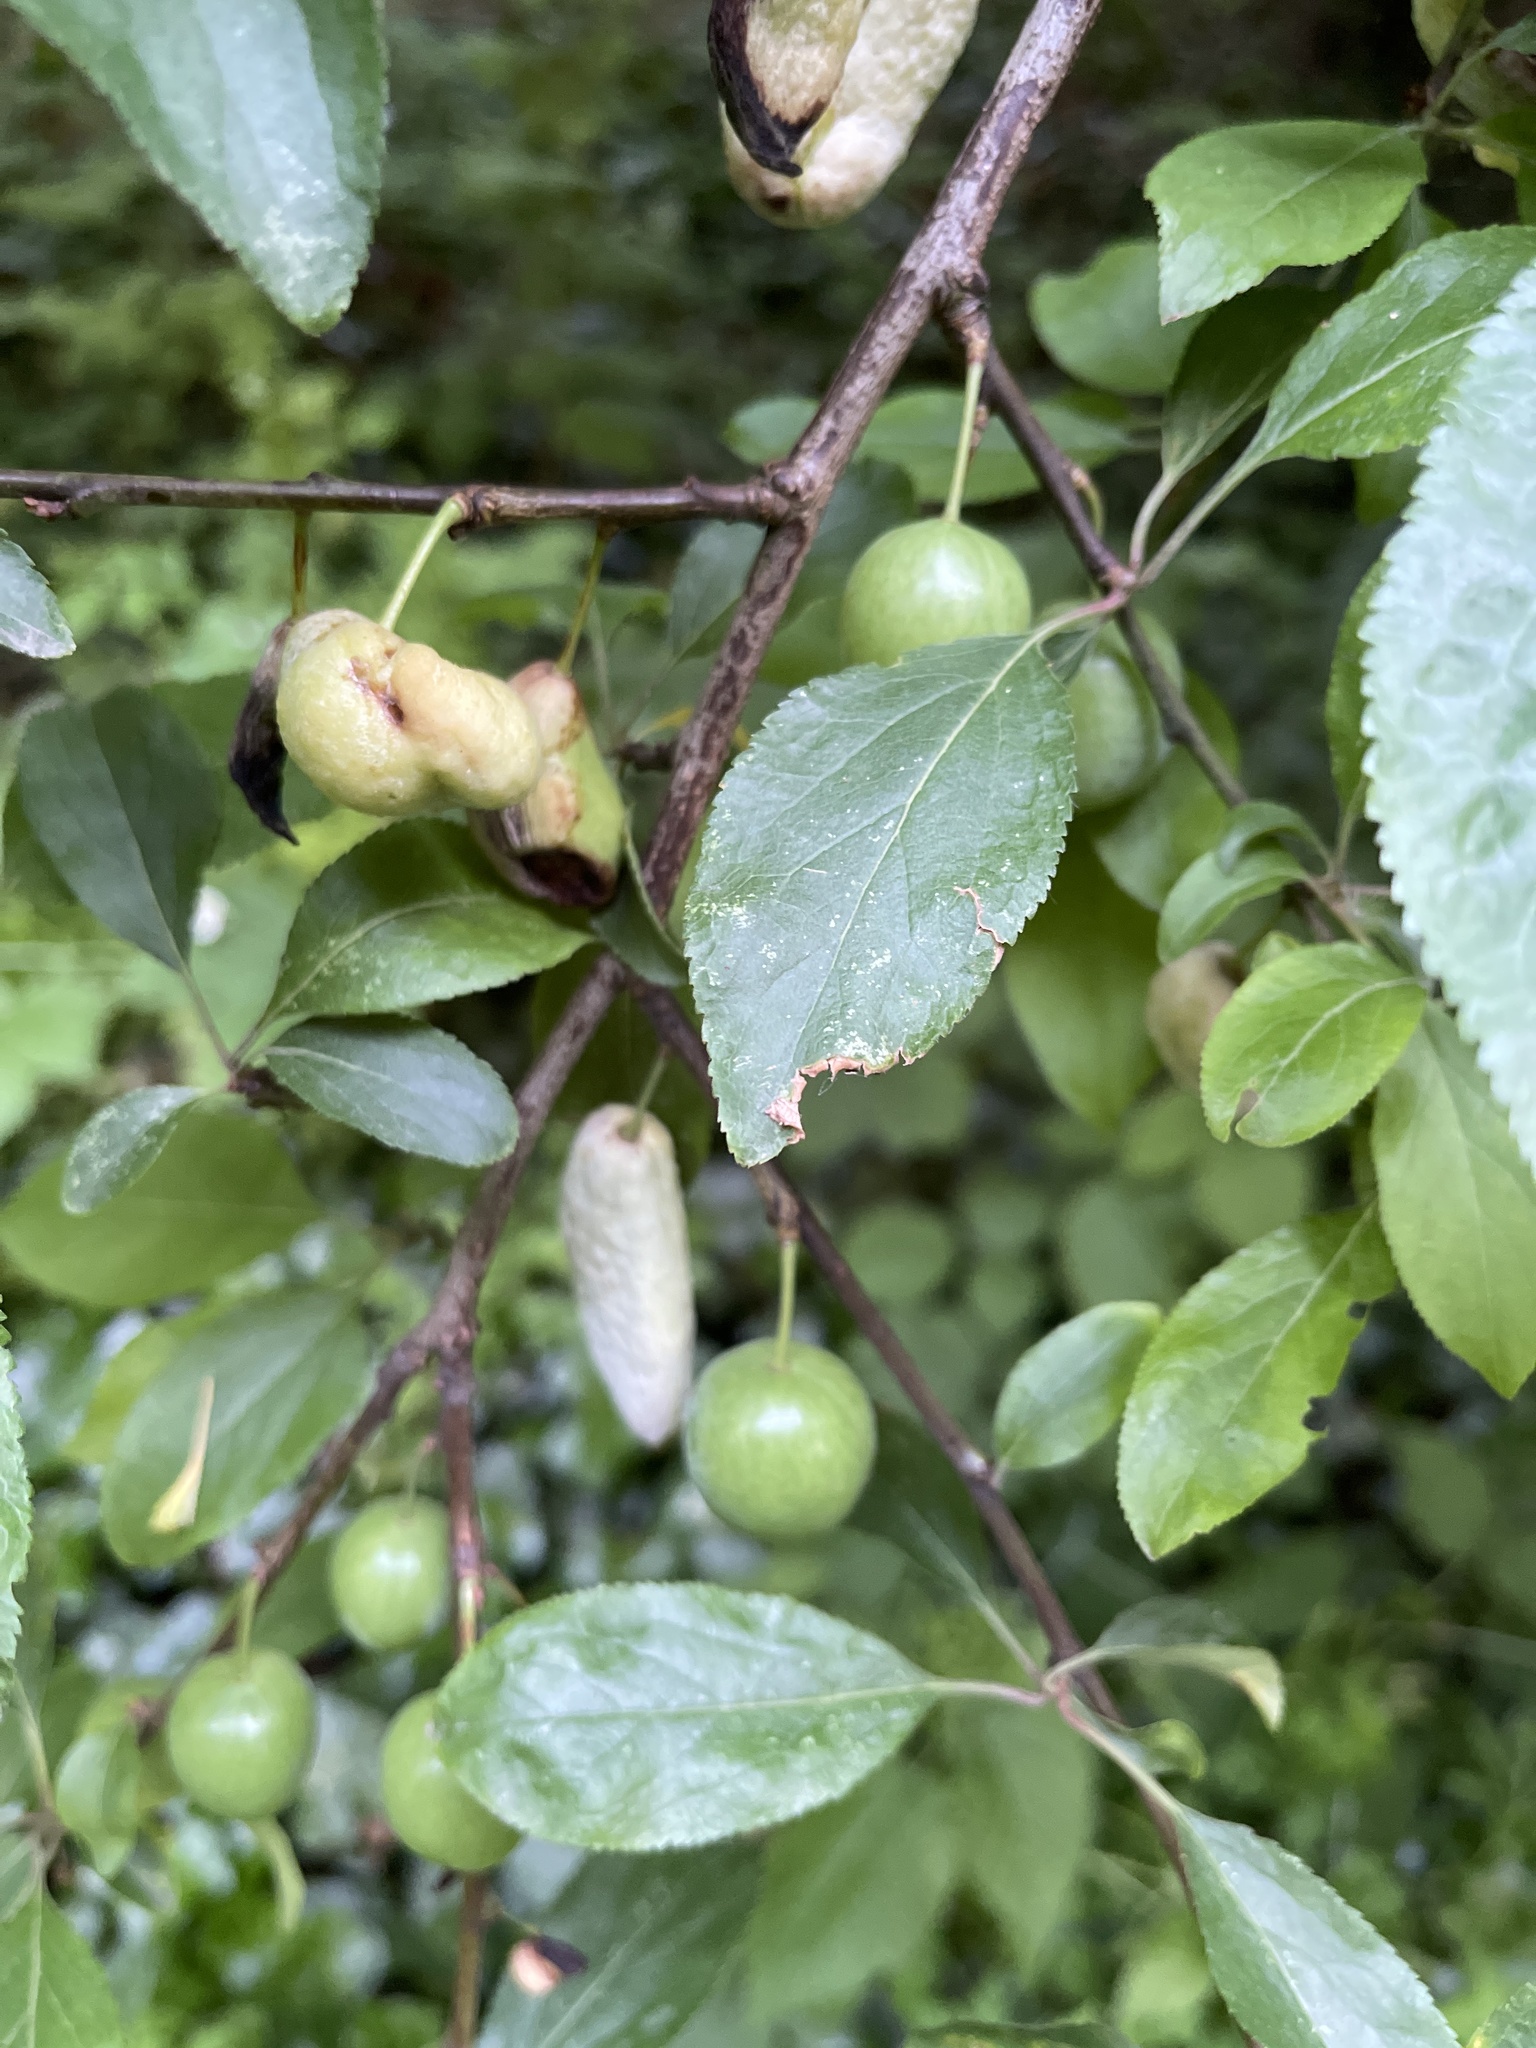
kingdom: Fungi
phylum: Ascomycota
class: Taphrinomycetes
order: Taphrinales
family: Taphrinaceae
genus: Taphrina
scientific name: Taphrina pruni
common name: Pocket plum
